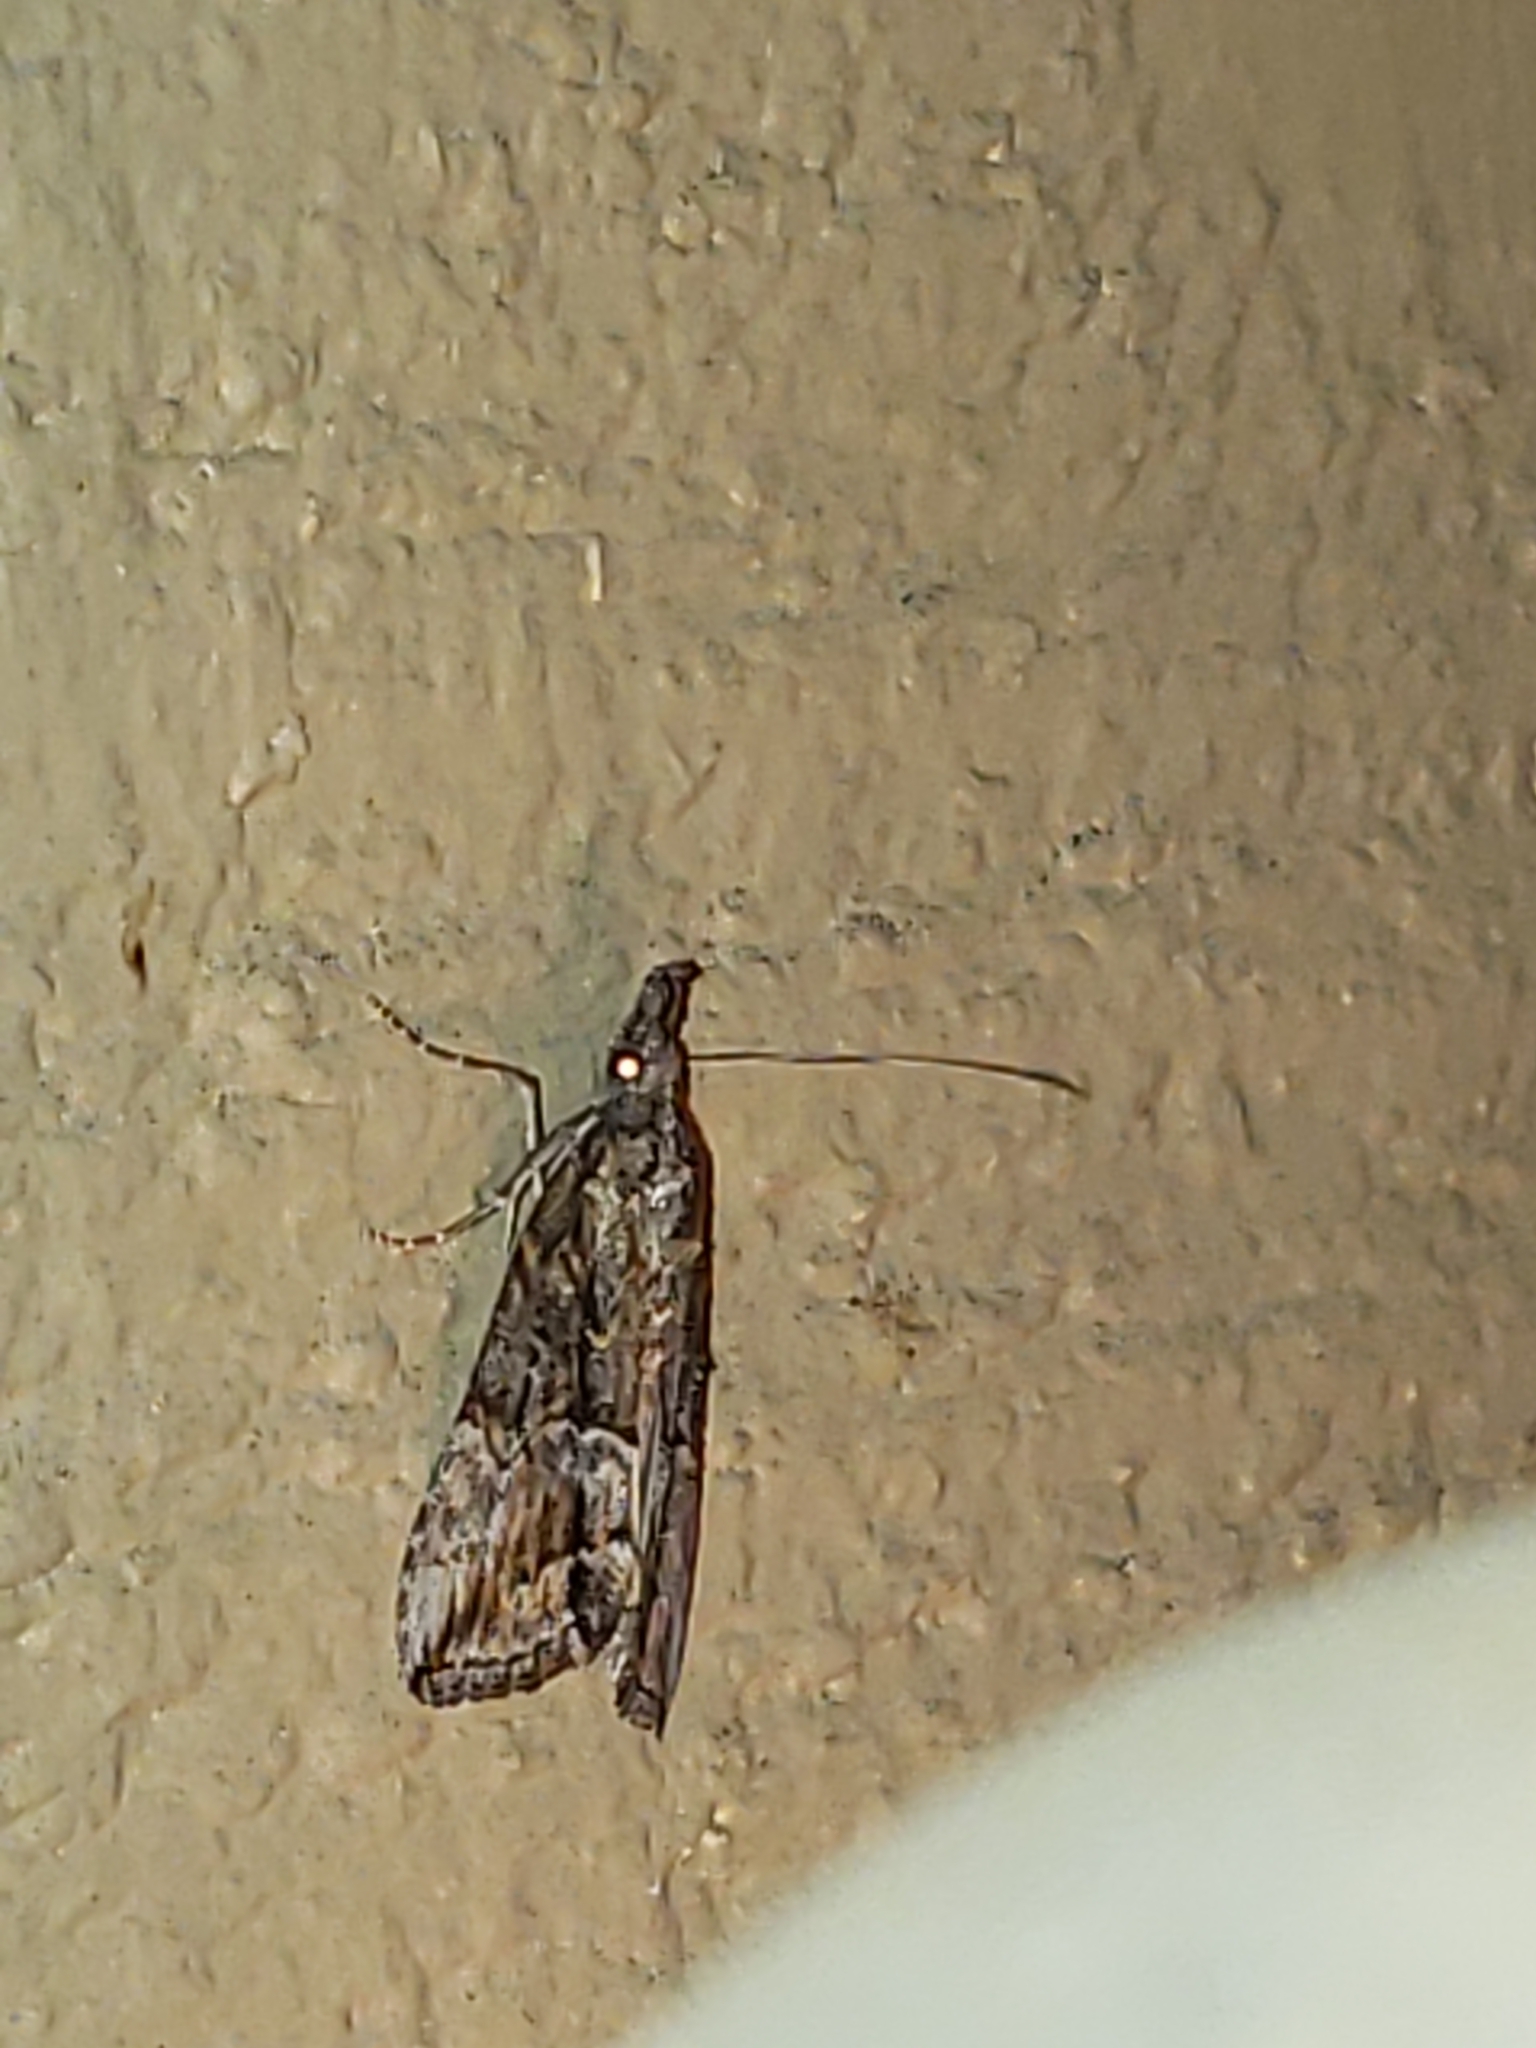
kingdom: Animalia
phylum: Arthropoda
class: Insecta
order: Lepidoptera
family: Erebidae
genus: Hypena
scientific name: Hypena scabra
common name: Green cloverworm
